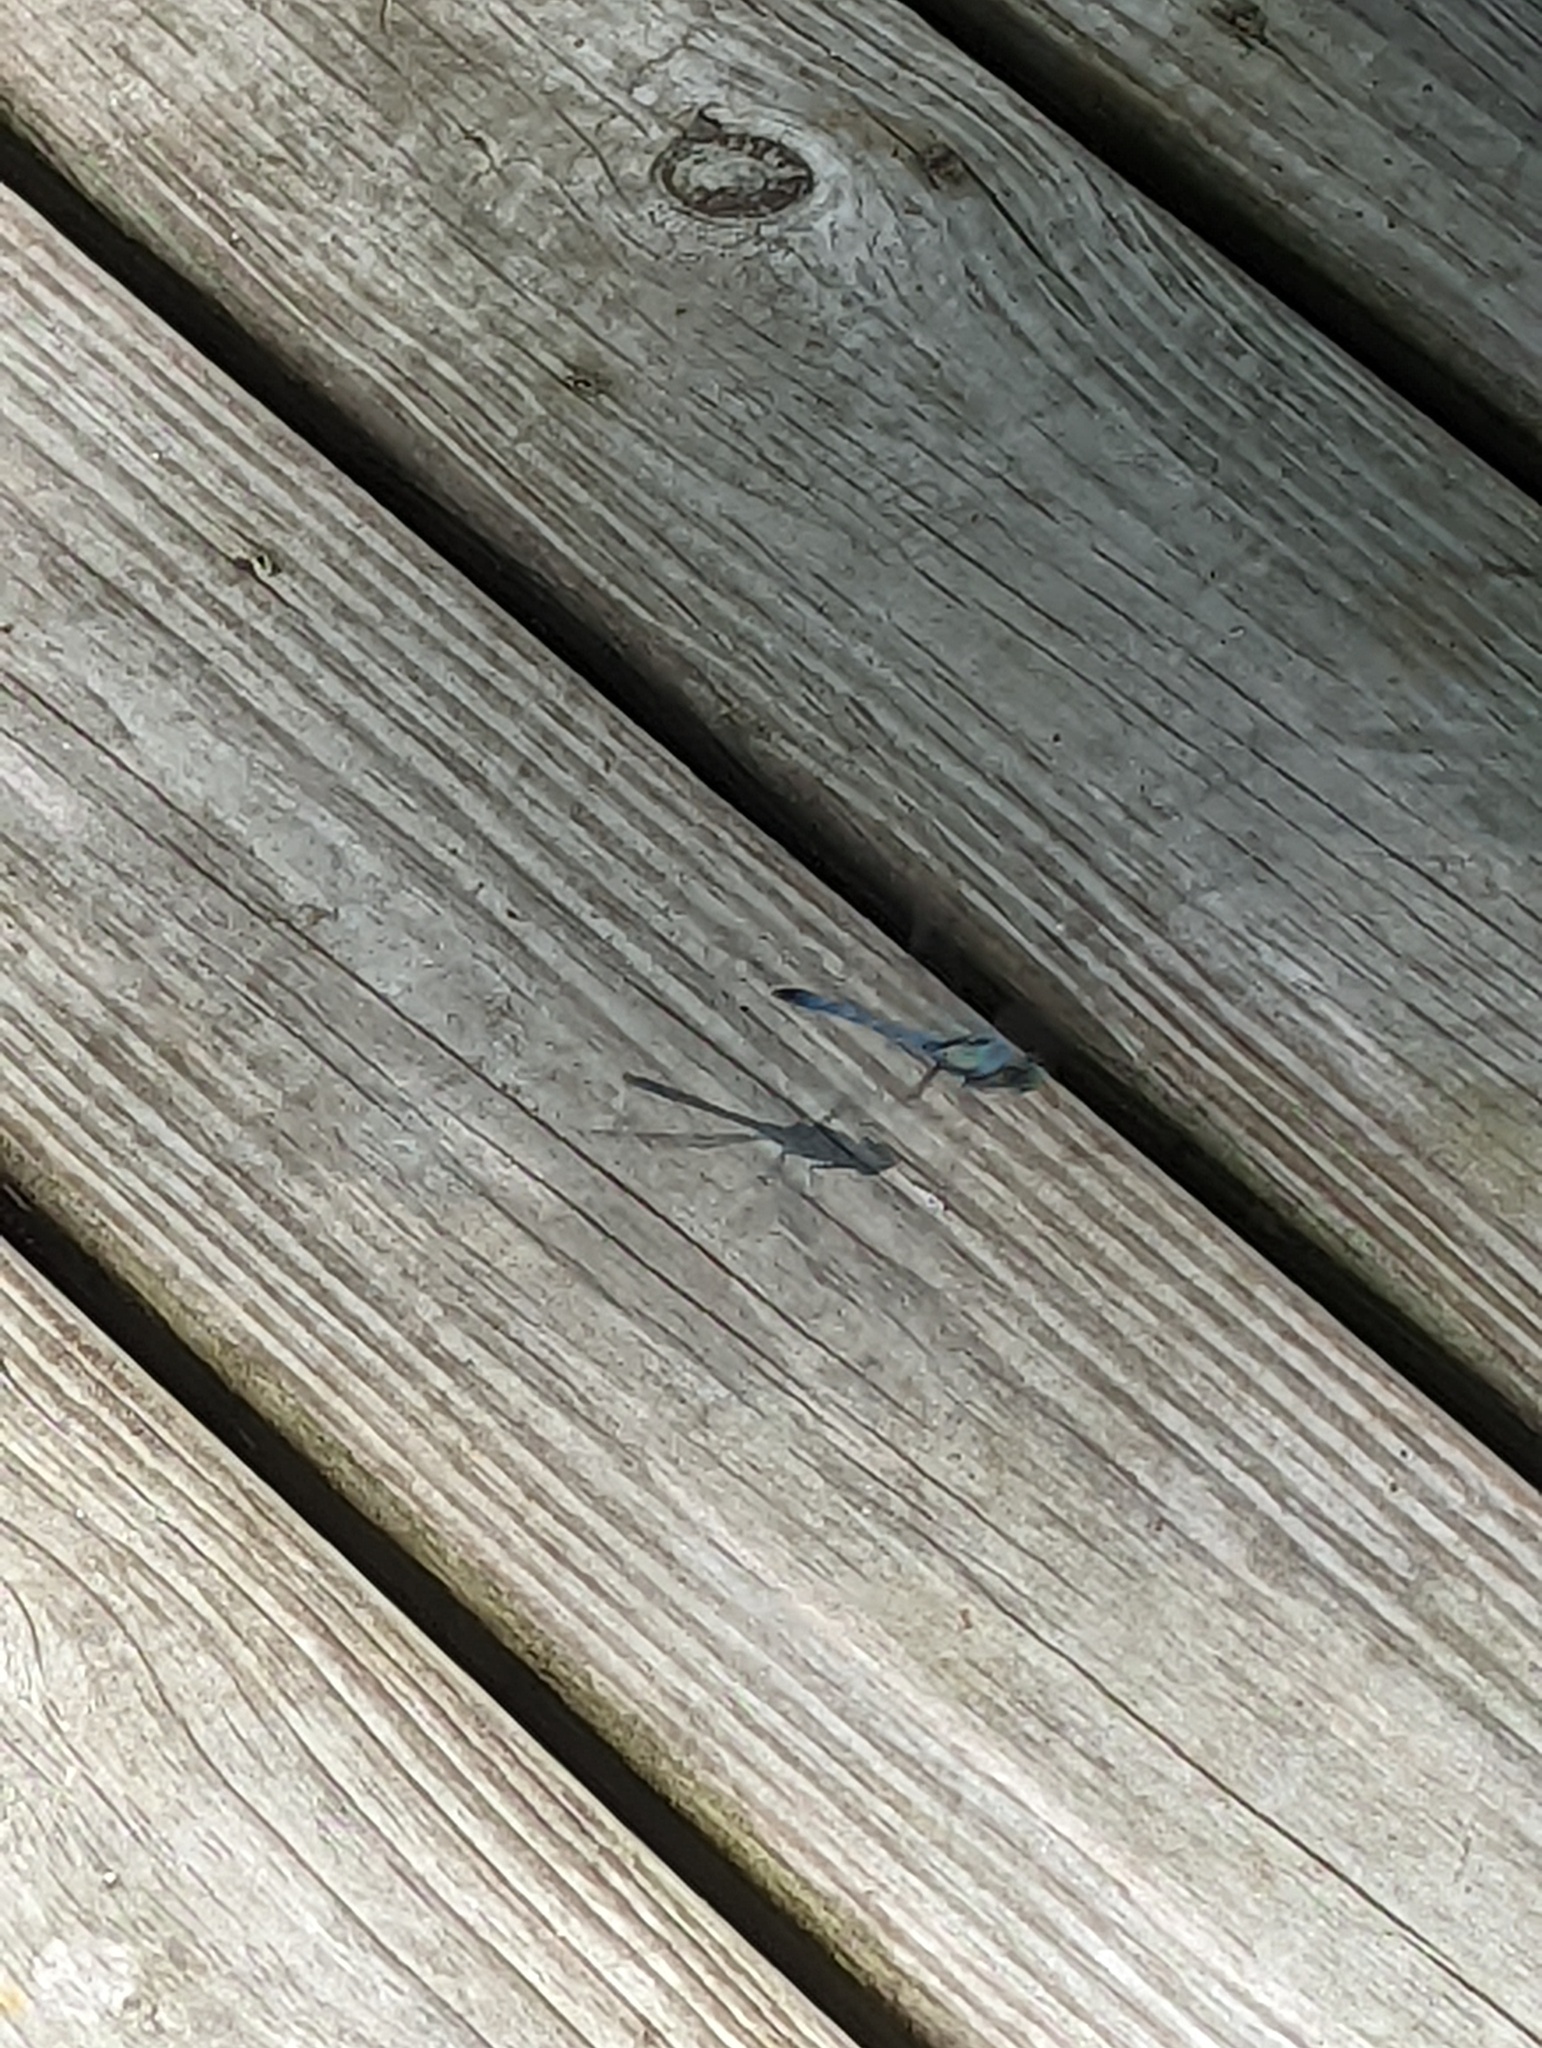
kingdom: Animalia
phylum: Arthropoda
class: Insecta
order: Odonata
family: Libellulidae
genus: Erythemis
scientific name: Erythemis simplicicollis
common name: Eastern pondhawk
